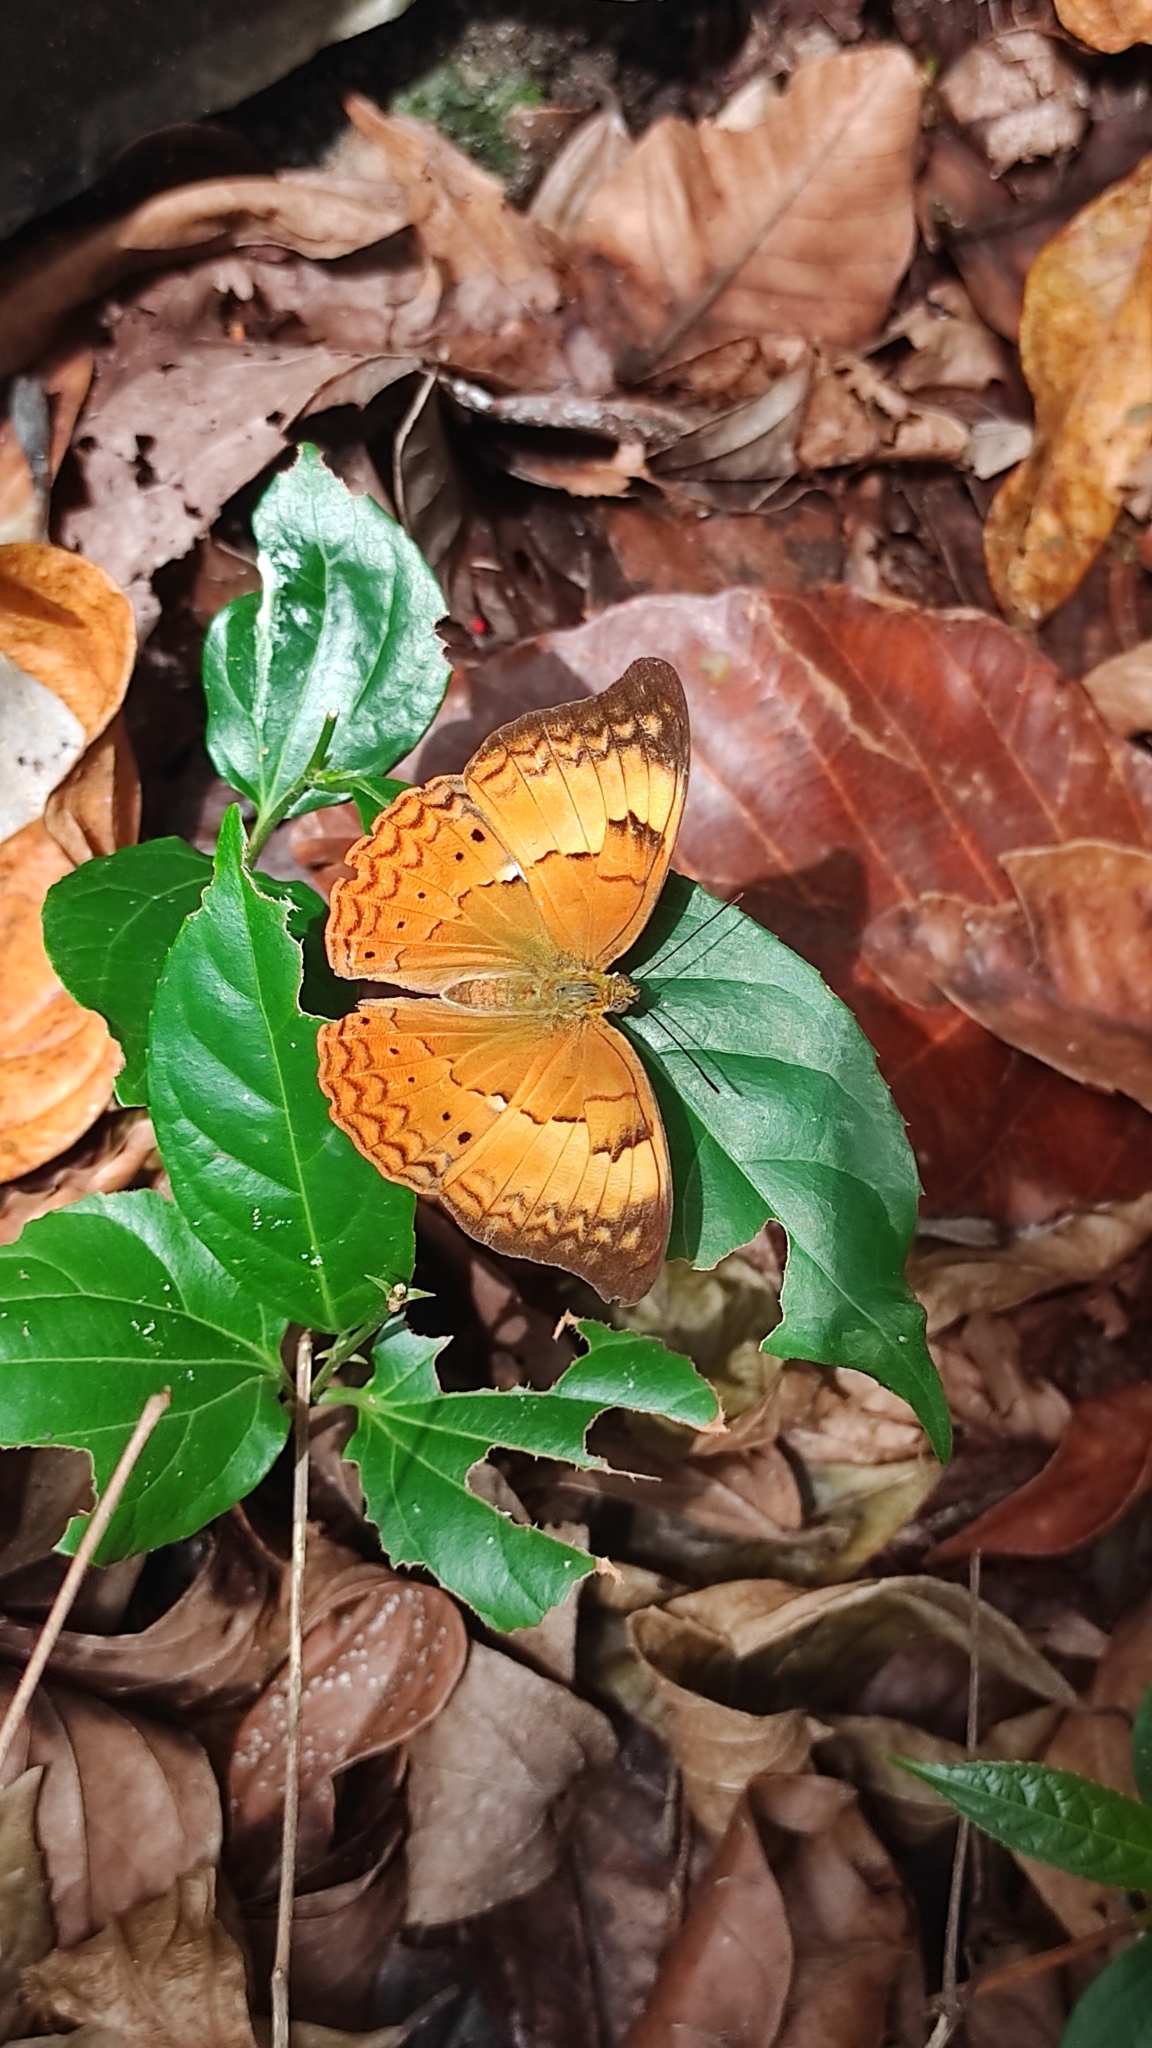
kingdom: Animalia
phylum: Arthropoda
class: Insecta
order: Lepidoptera
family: Nymphalidae
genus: Cirrochroa
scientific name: Cirrochroa thais
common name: Tamil yeoman
